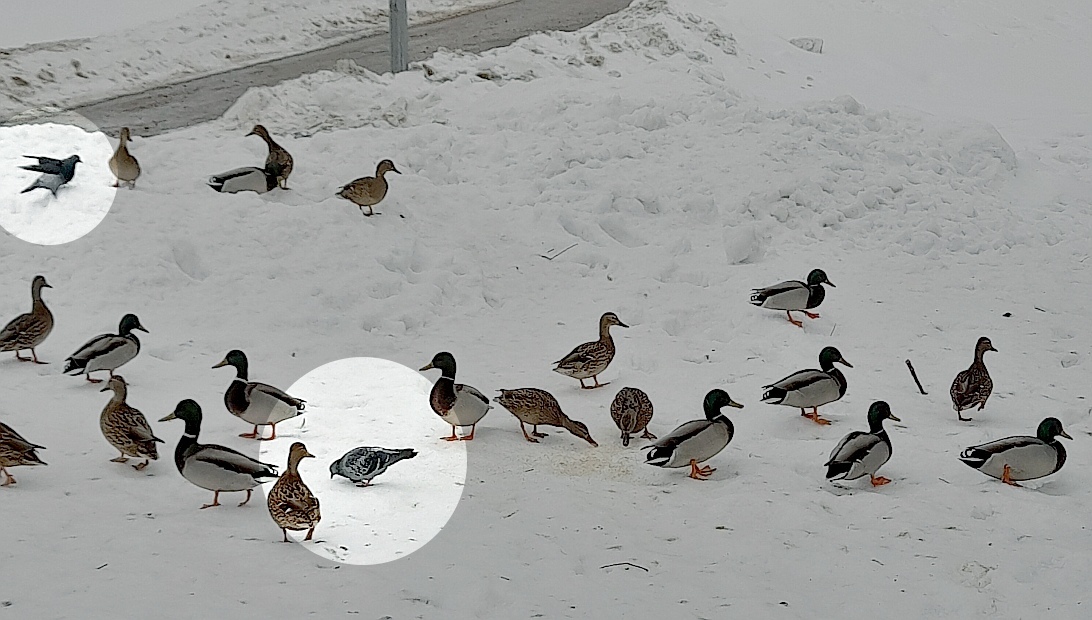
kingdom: Animalia
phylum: Chordata
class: Aves
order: Columbiformes
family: Columbidae
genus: Columba
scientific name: Columba livia
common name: Rock pigeon
